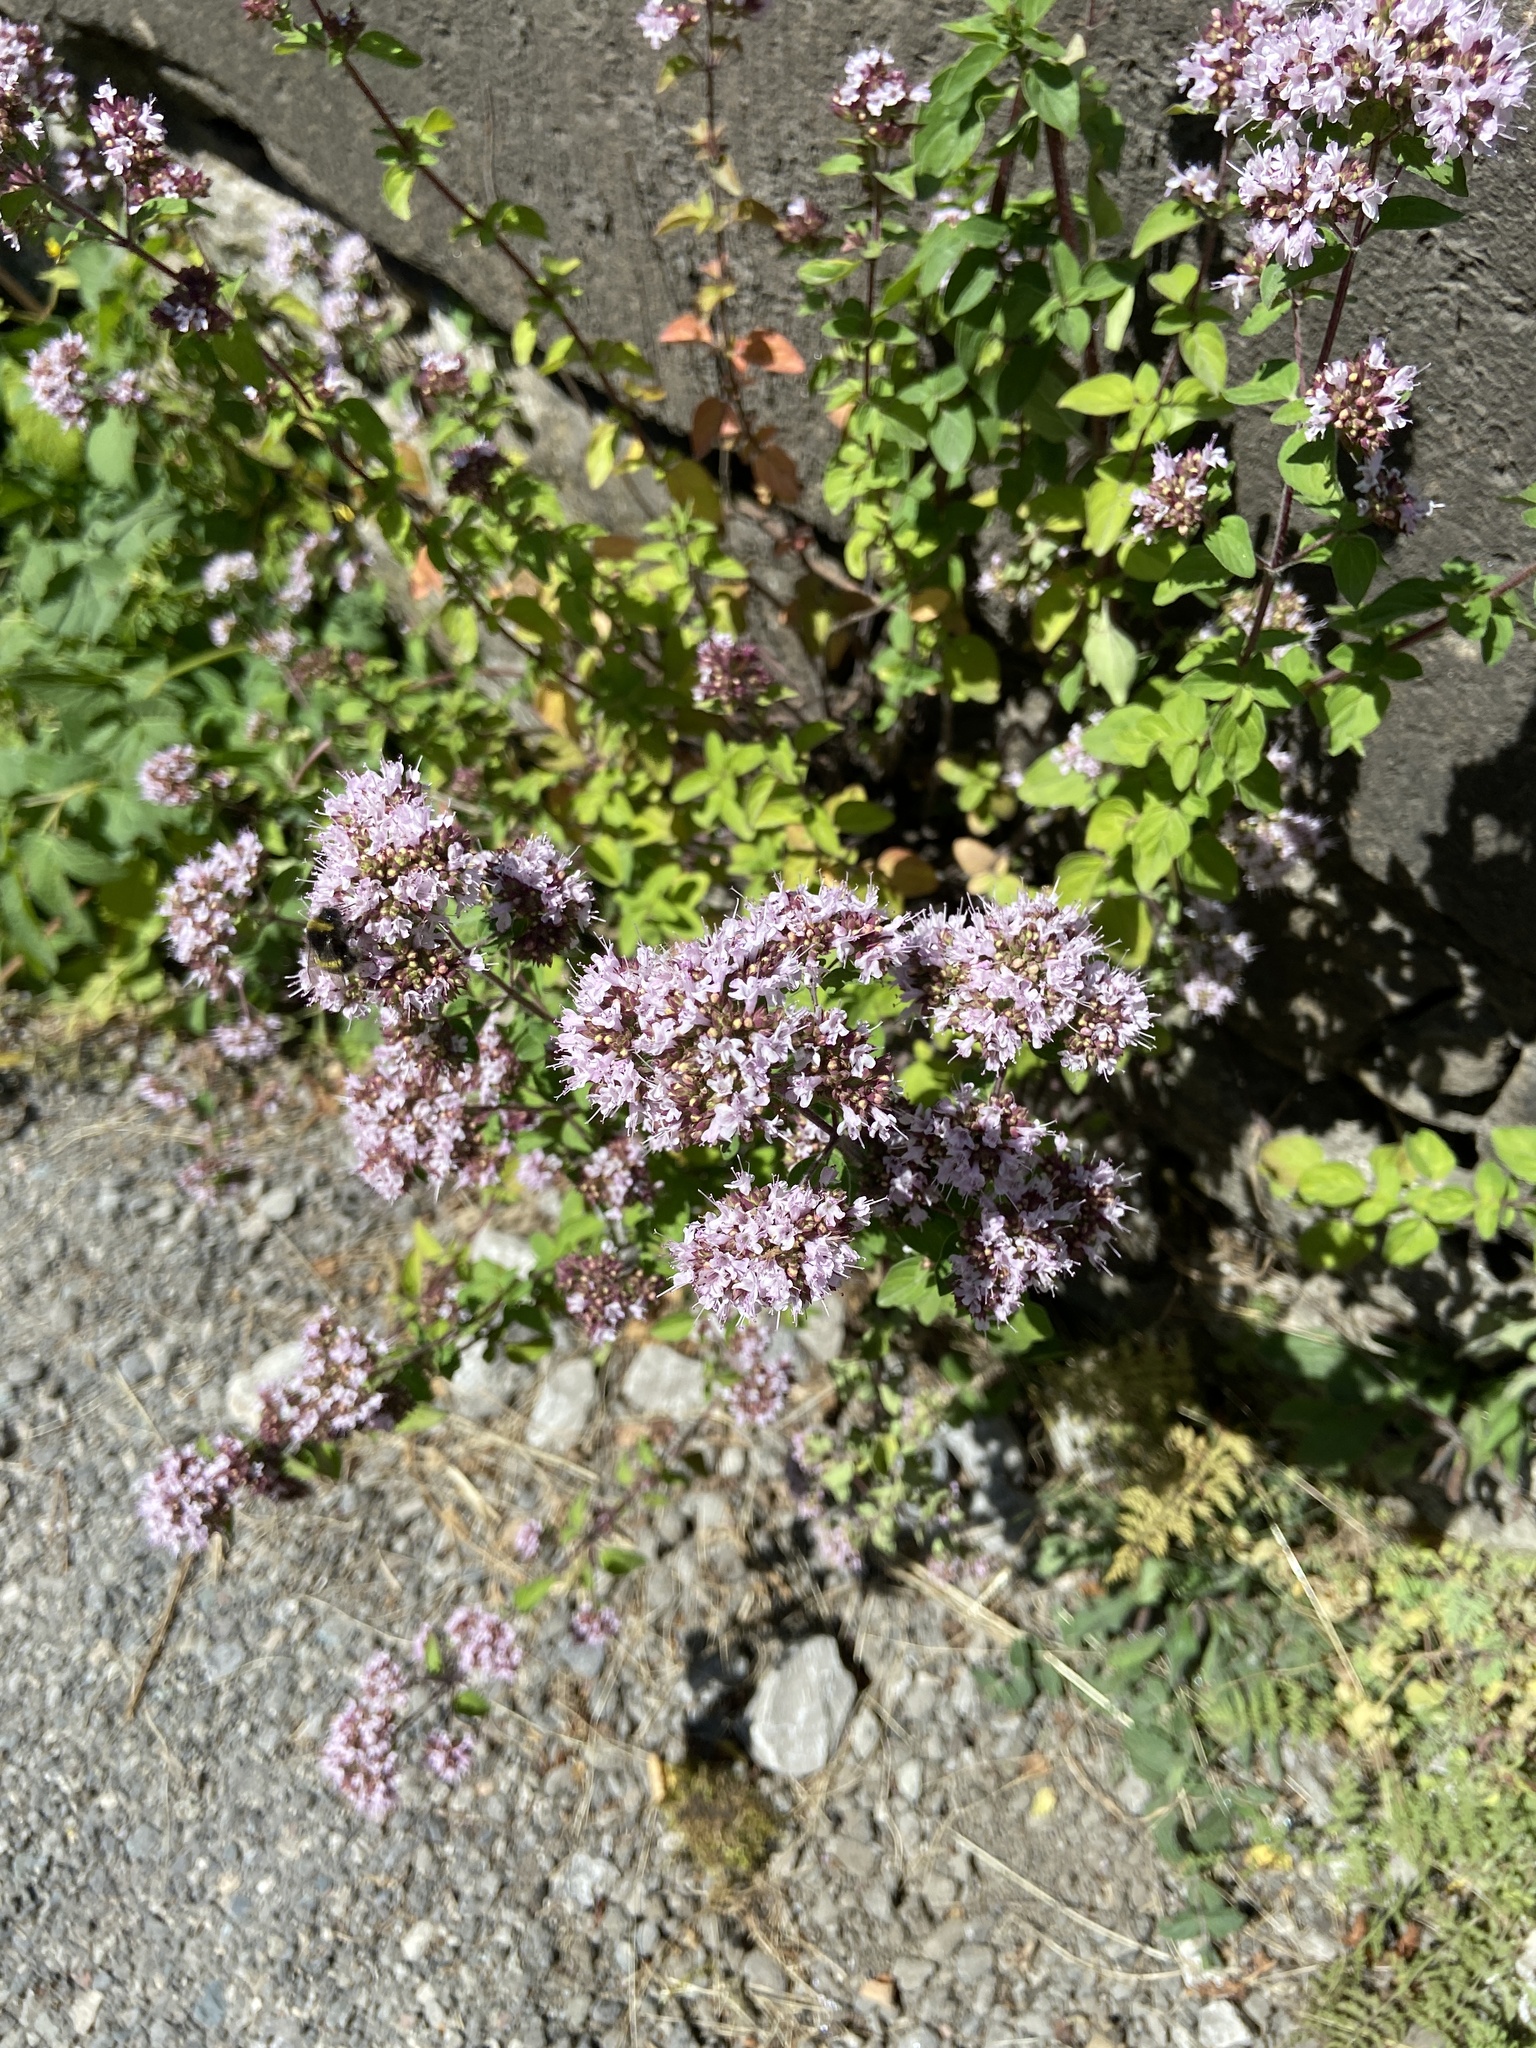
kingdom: Plantae
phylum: Tracheophyta
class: Magnoliopsida
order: Lamiales
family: Lamiaceae
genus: Origanum
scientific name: Origanum vulgare
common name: Wild marjoram
